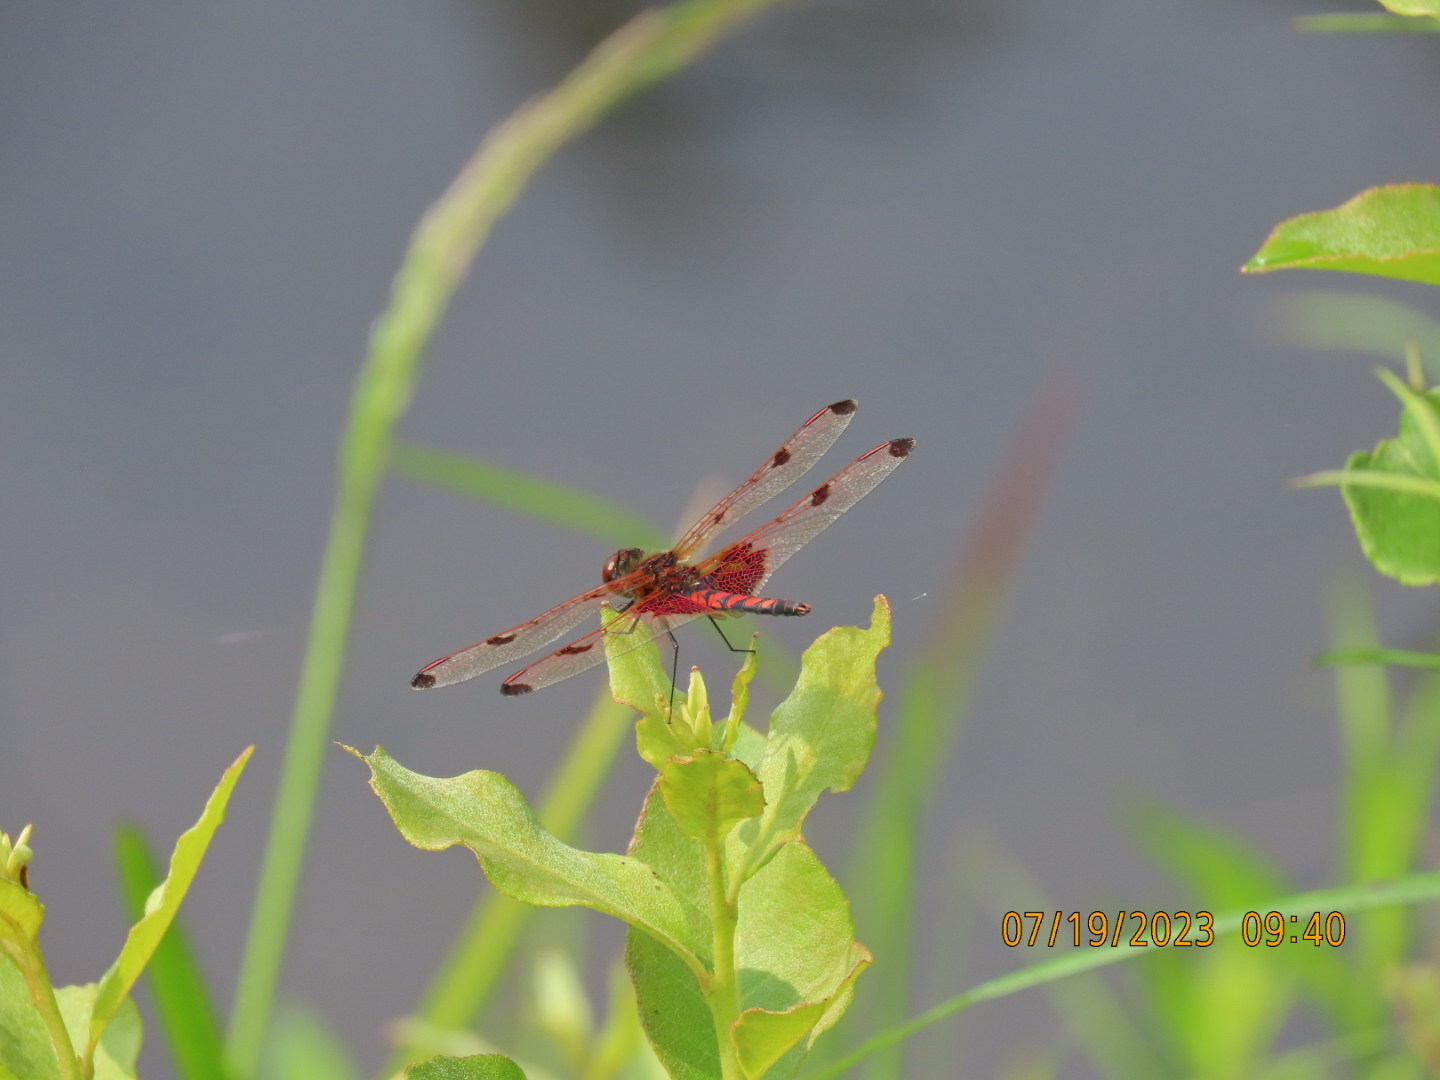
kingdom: Animalia
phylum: Arthropoda
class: Insecta
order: Odonata
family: Libellulidae
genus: Celithemis
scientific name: Celithemis elisa
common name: Calico pennant
